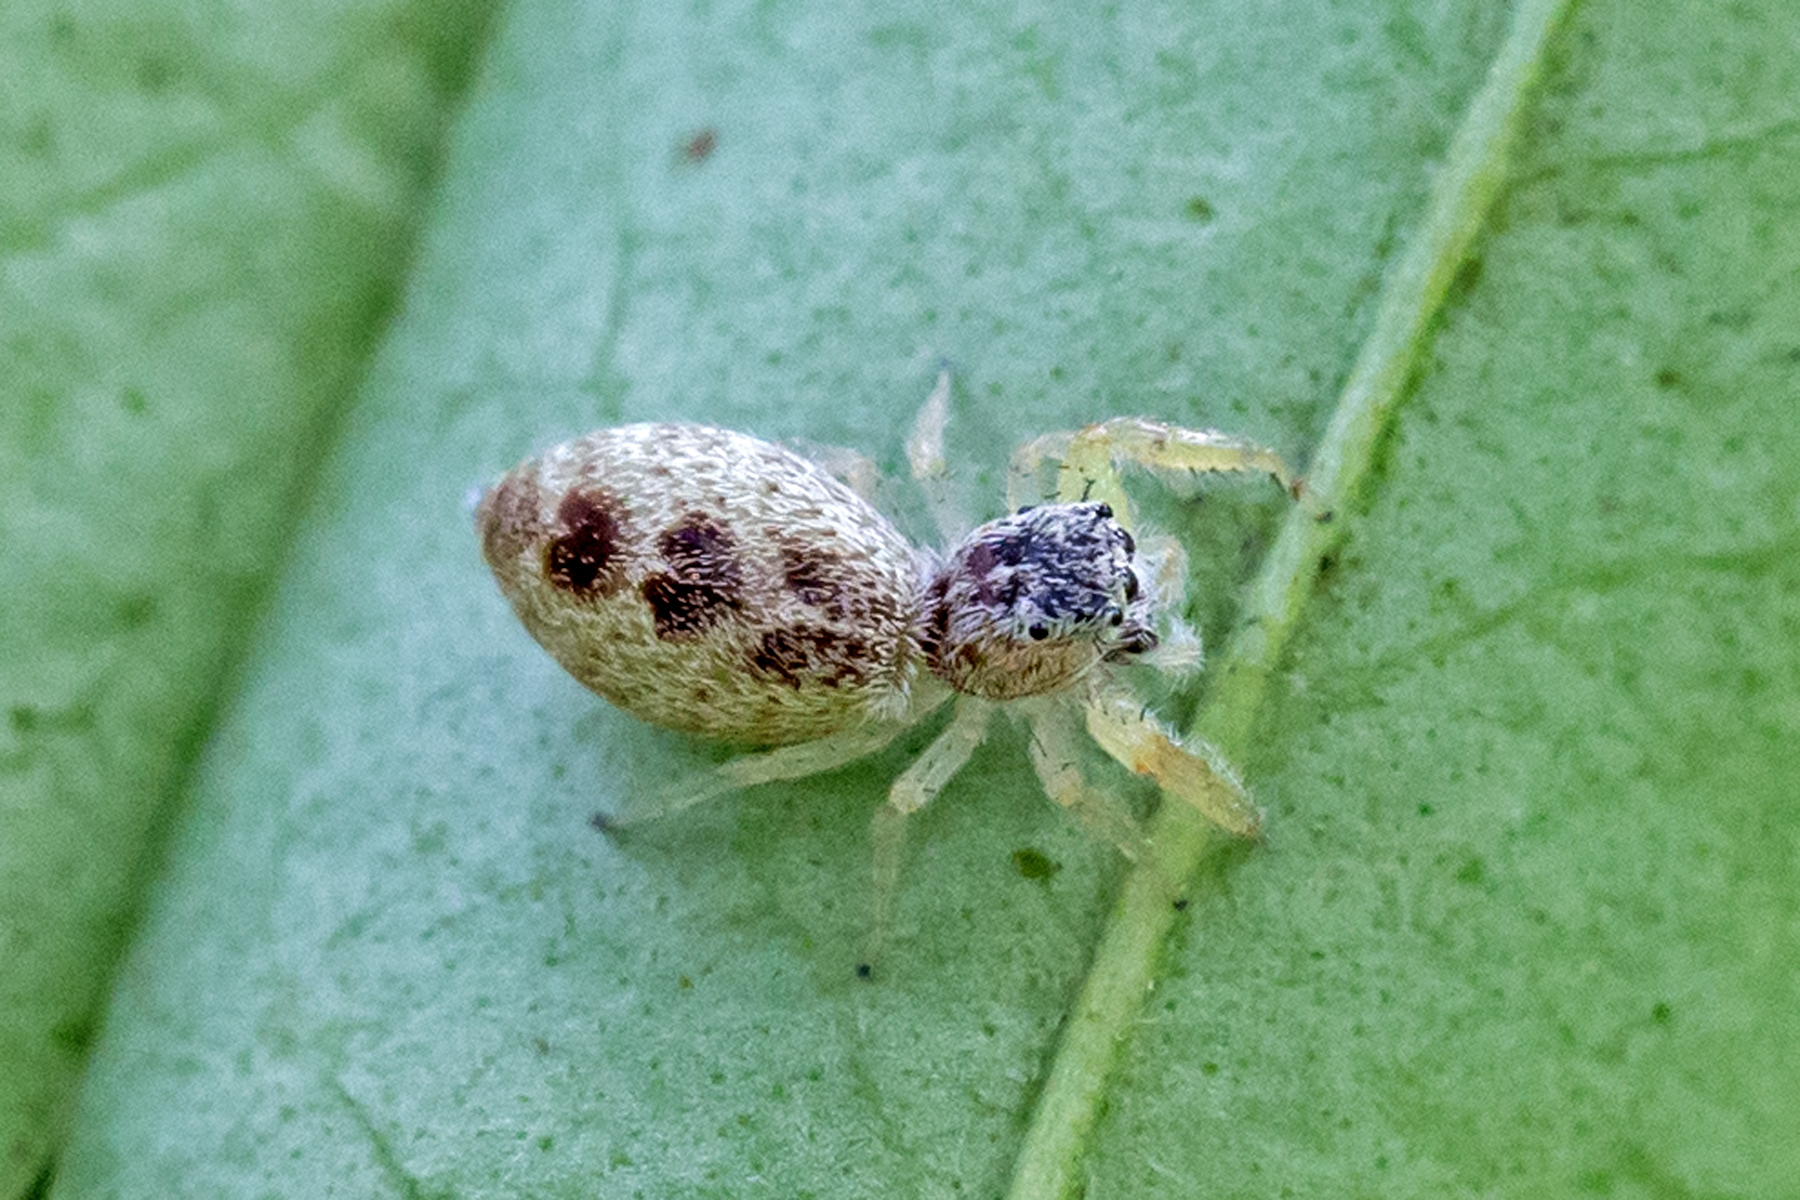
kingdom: Animalia
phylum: Arthropoda
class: Arachnida
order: Araneae
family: Salticidae
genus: Hentzia
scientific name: Hentzia mitrata
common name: White-jawed jumping spider
